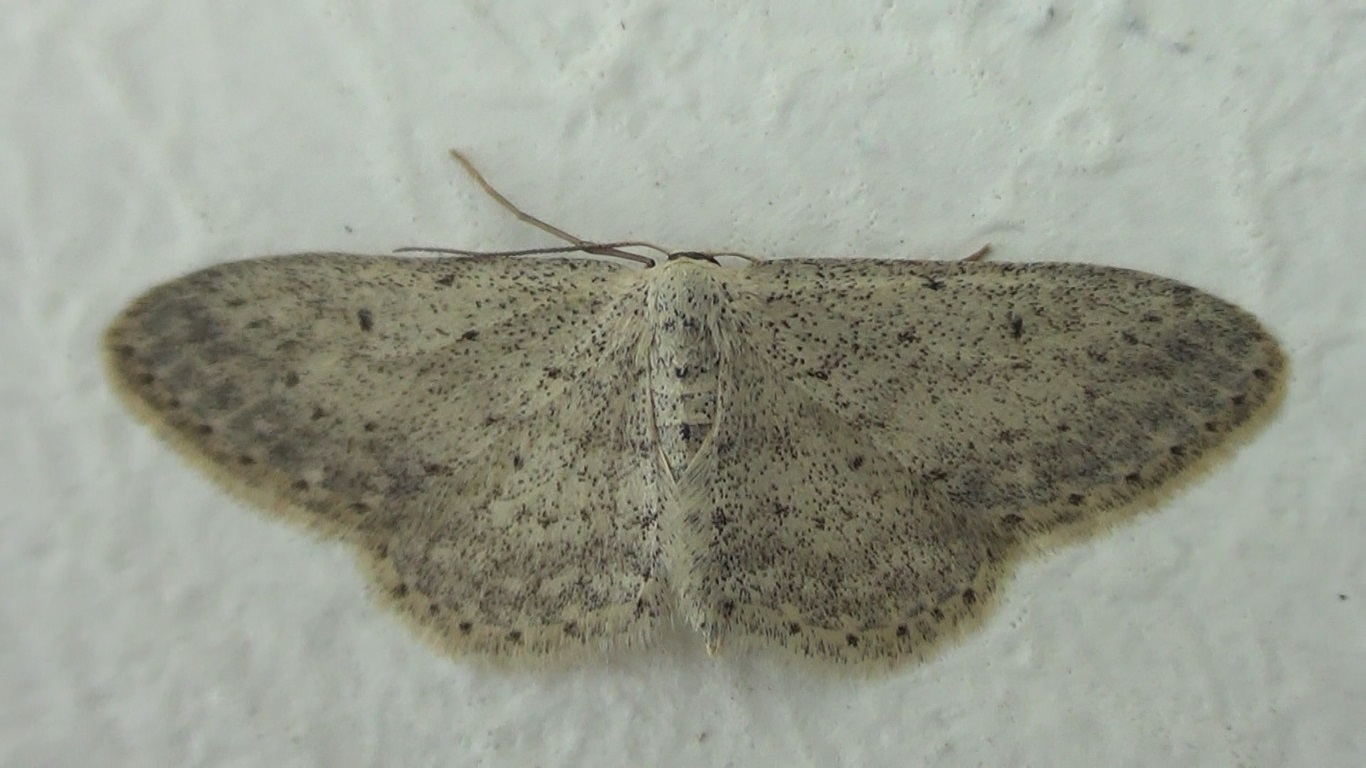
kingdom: Animalia
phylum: Arthropoda
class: Insecta
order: Lepidoptera
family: Geometridae
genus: Idaea
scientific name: Idaea seriata
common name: Small dusty wave
